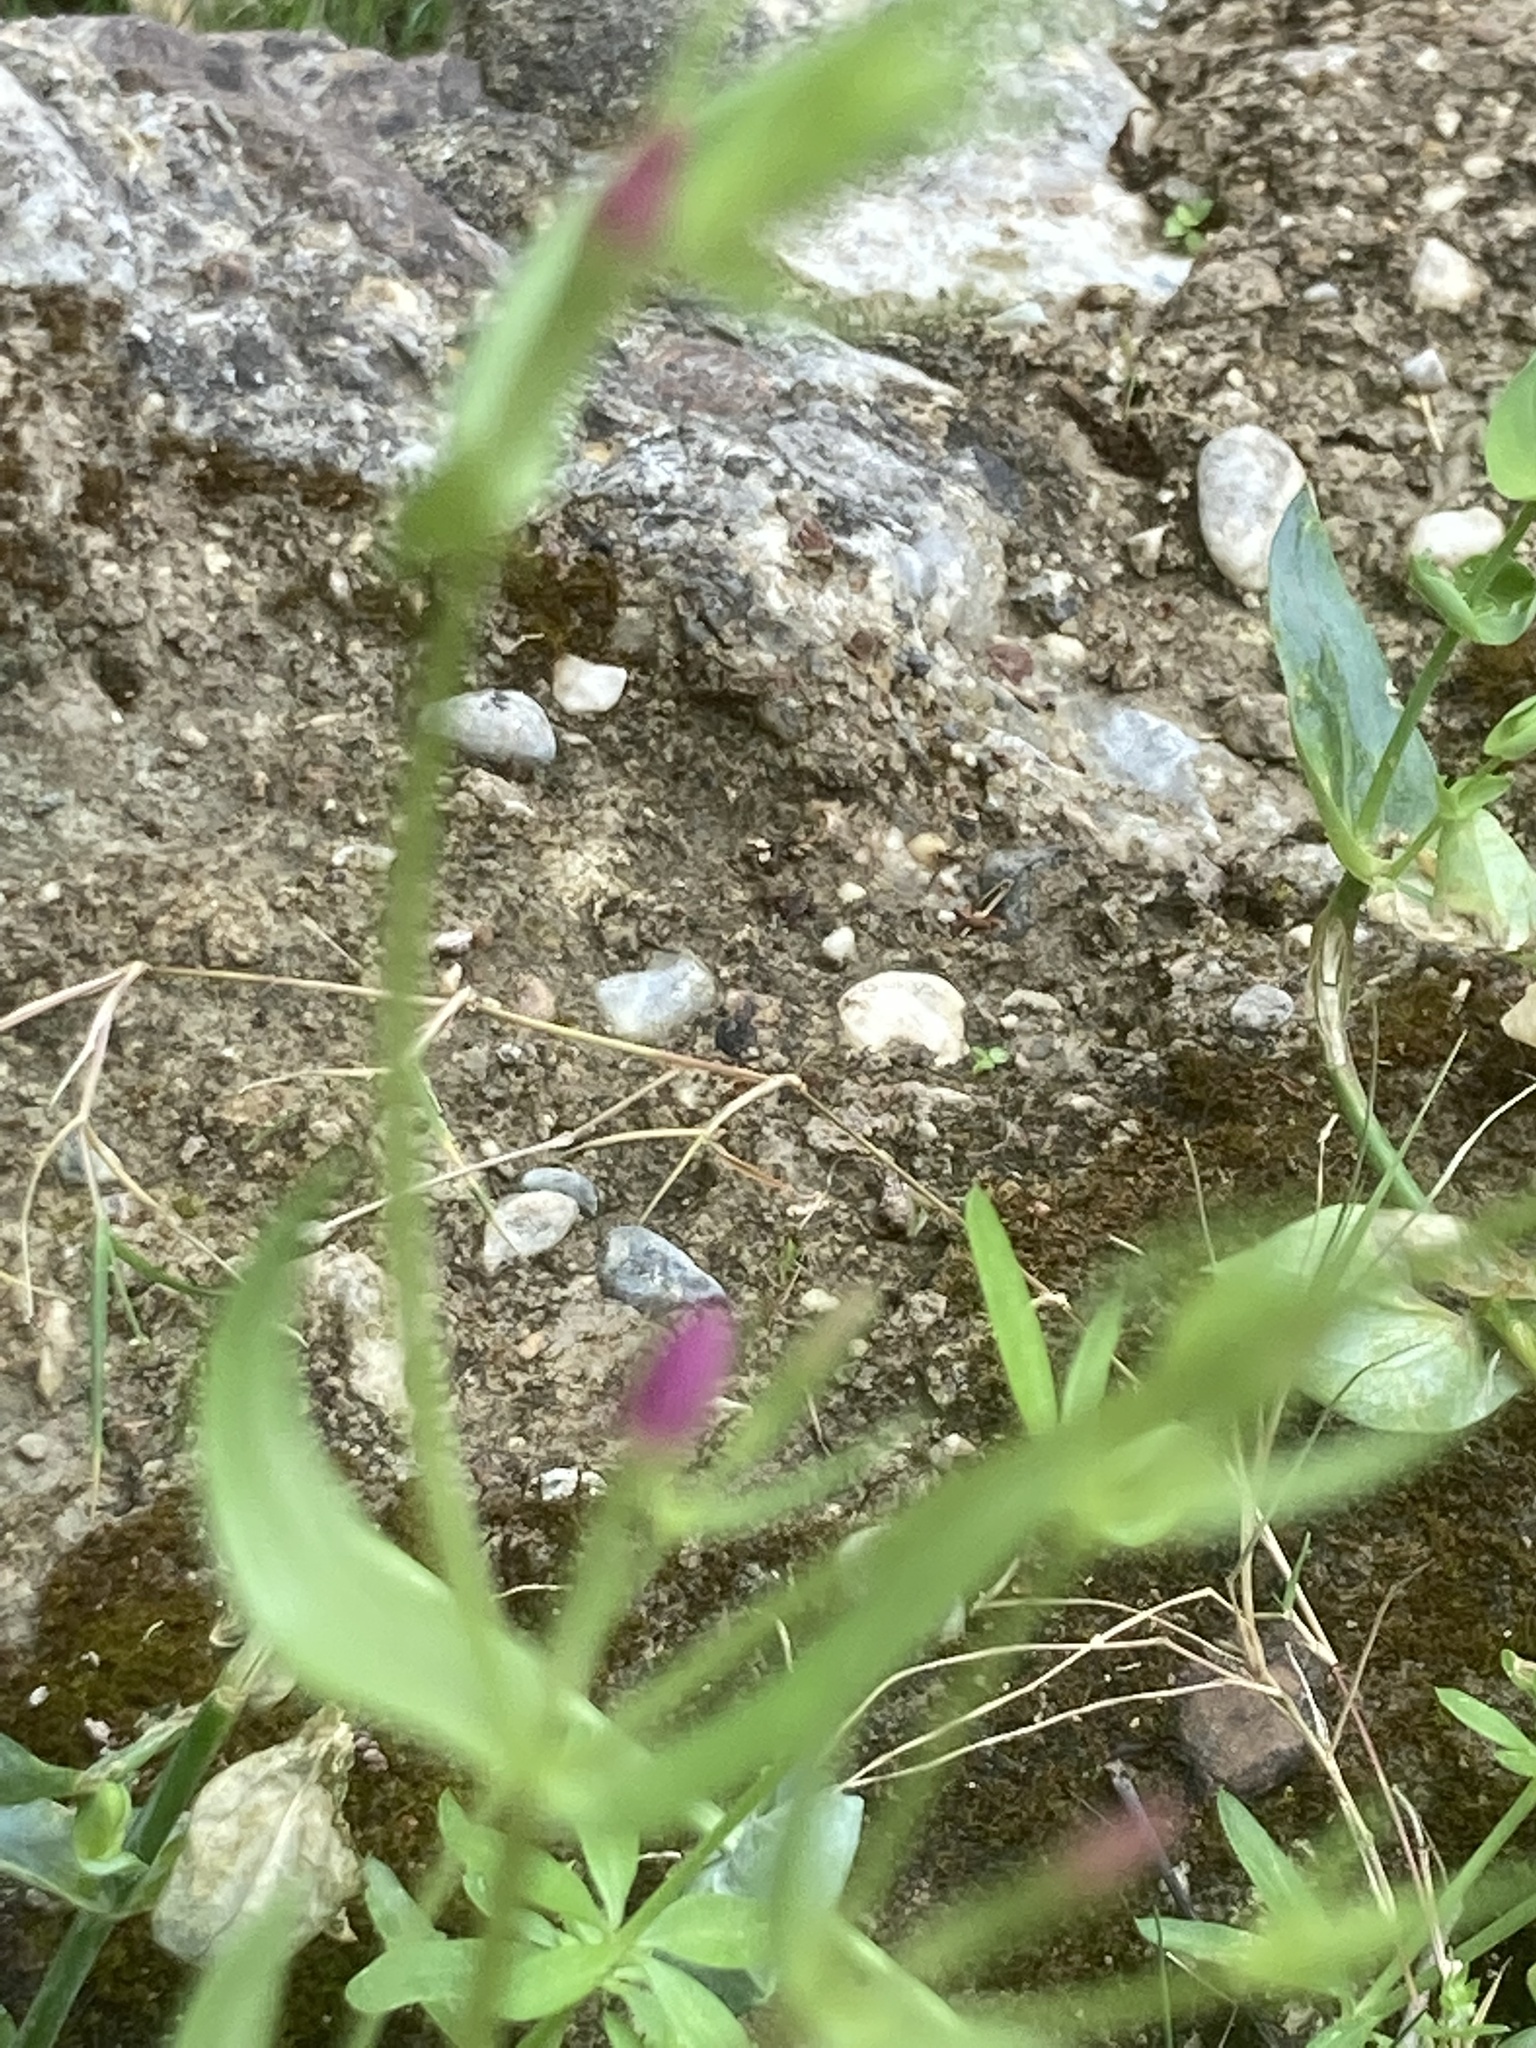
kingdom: Plantae
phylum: Tracheophyta
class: Magnoliopsida
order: Gentianales
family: Gentianaceae
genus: Centaurium
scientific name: Centaurium
